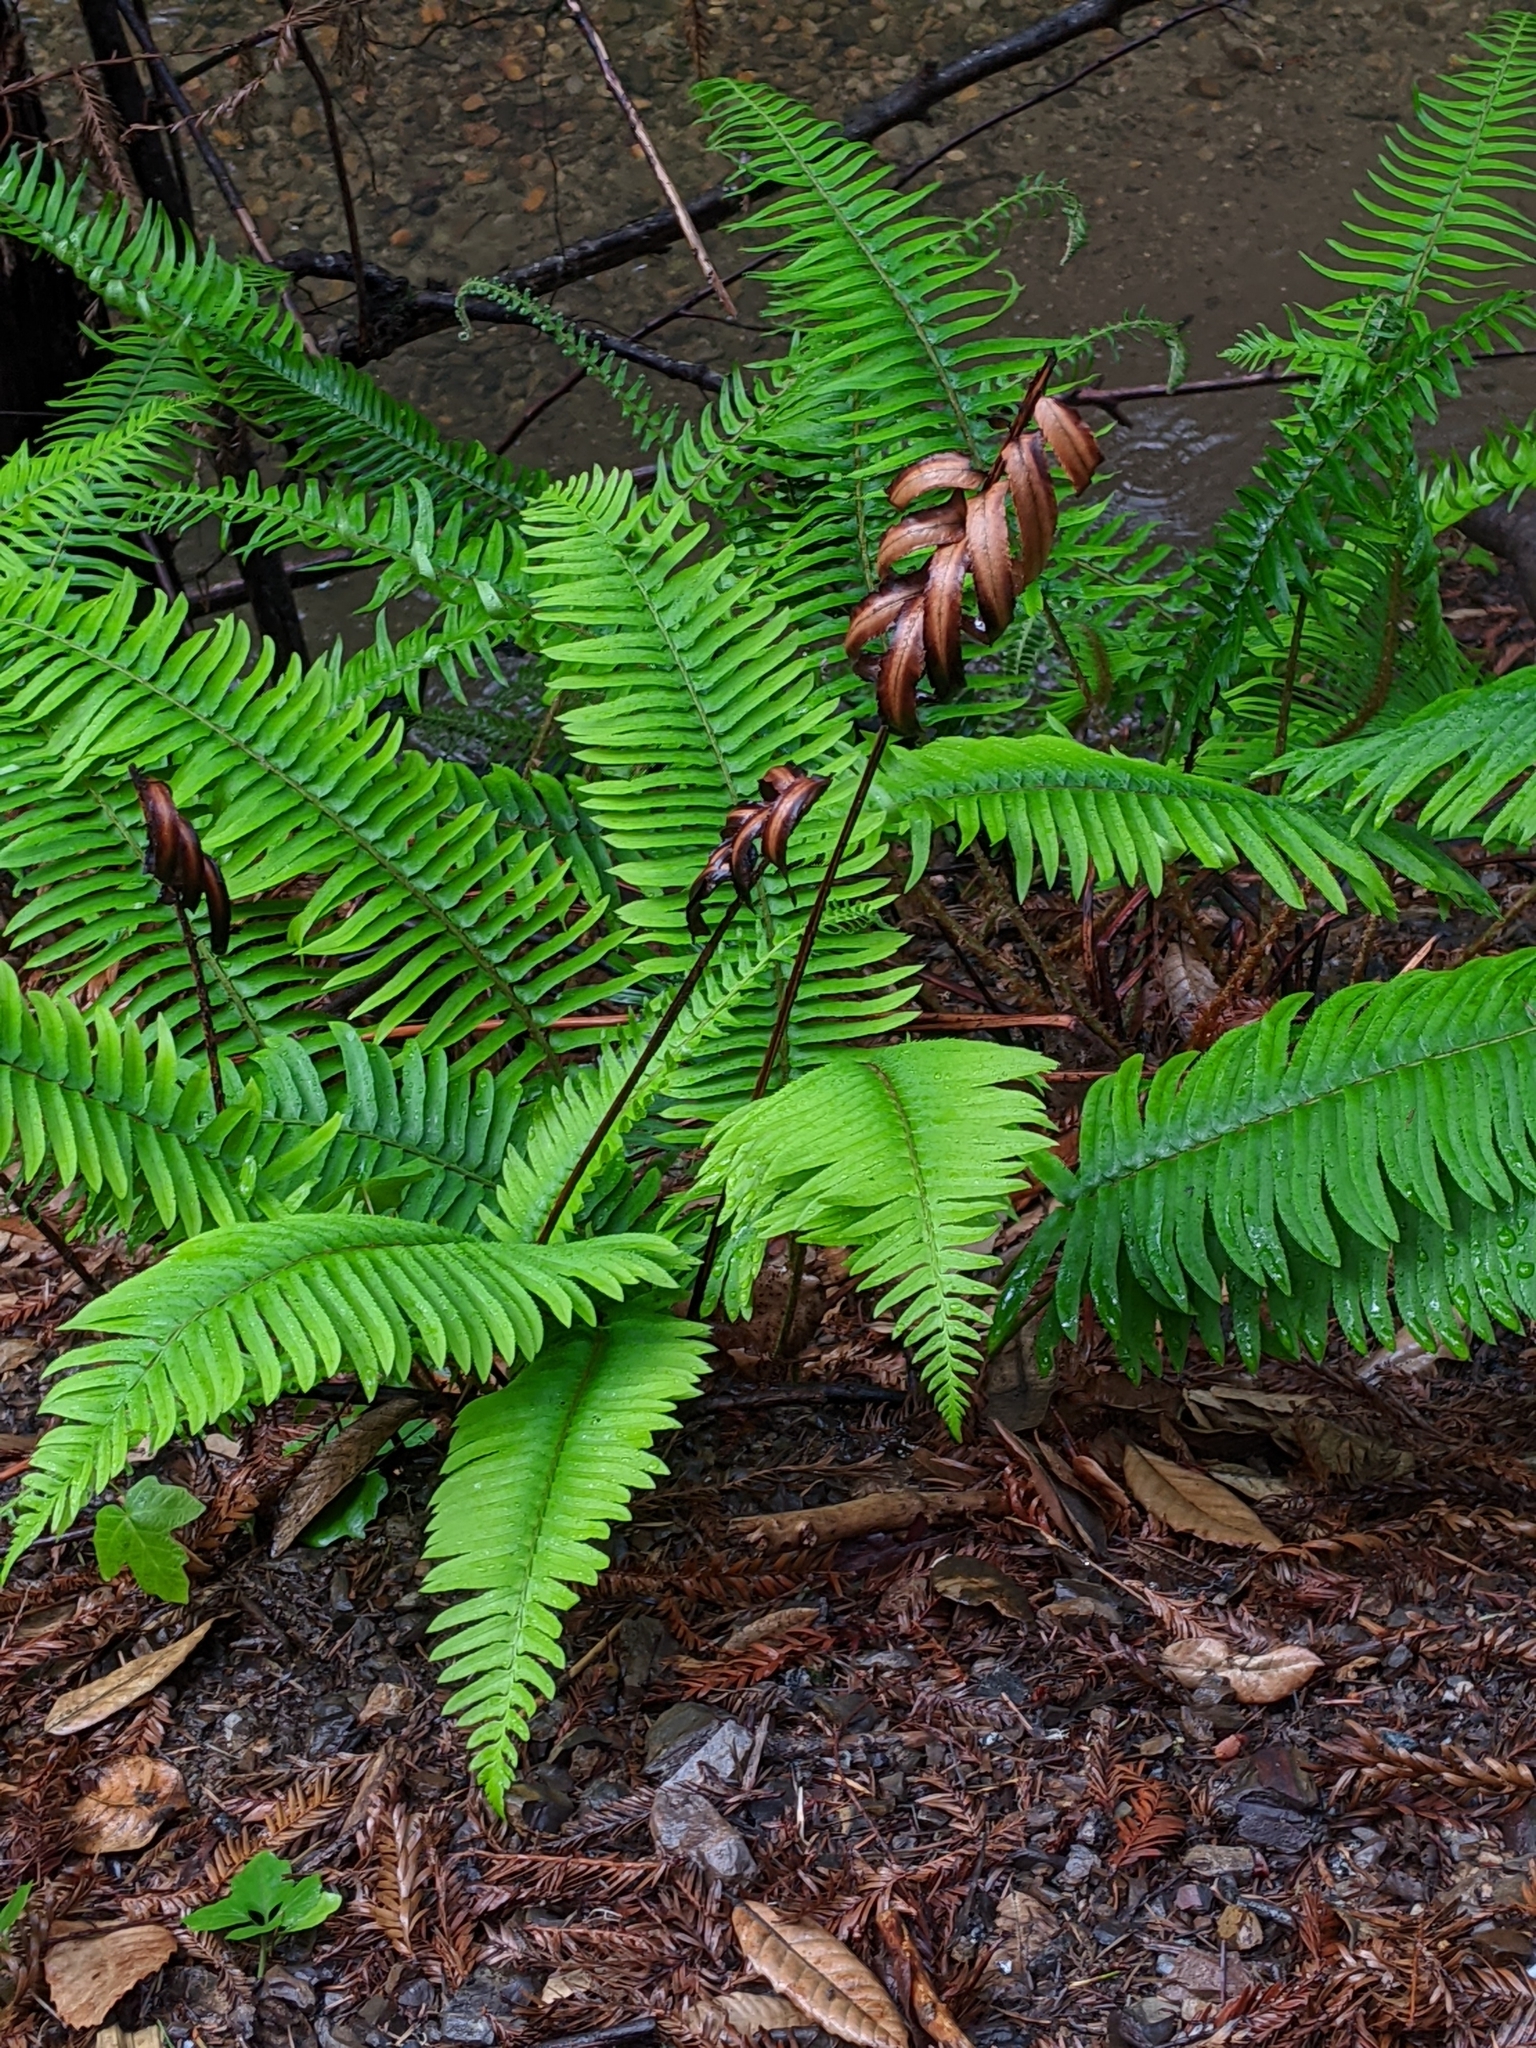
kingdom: Plantae
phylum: Tracheophyta
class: Polypodiopsida
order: Polypodiales
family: Dryopteridaceae
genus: Polystichum
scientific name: Polystichum munitum
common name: Western sword-fern
